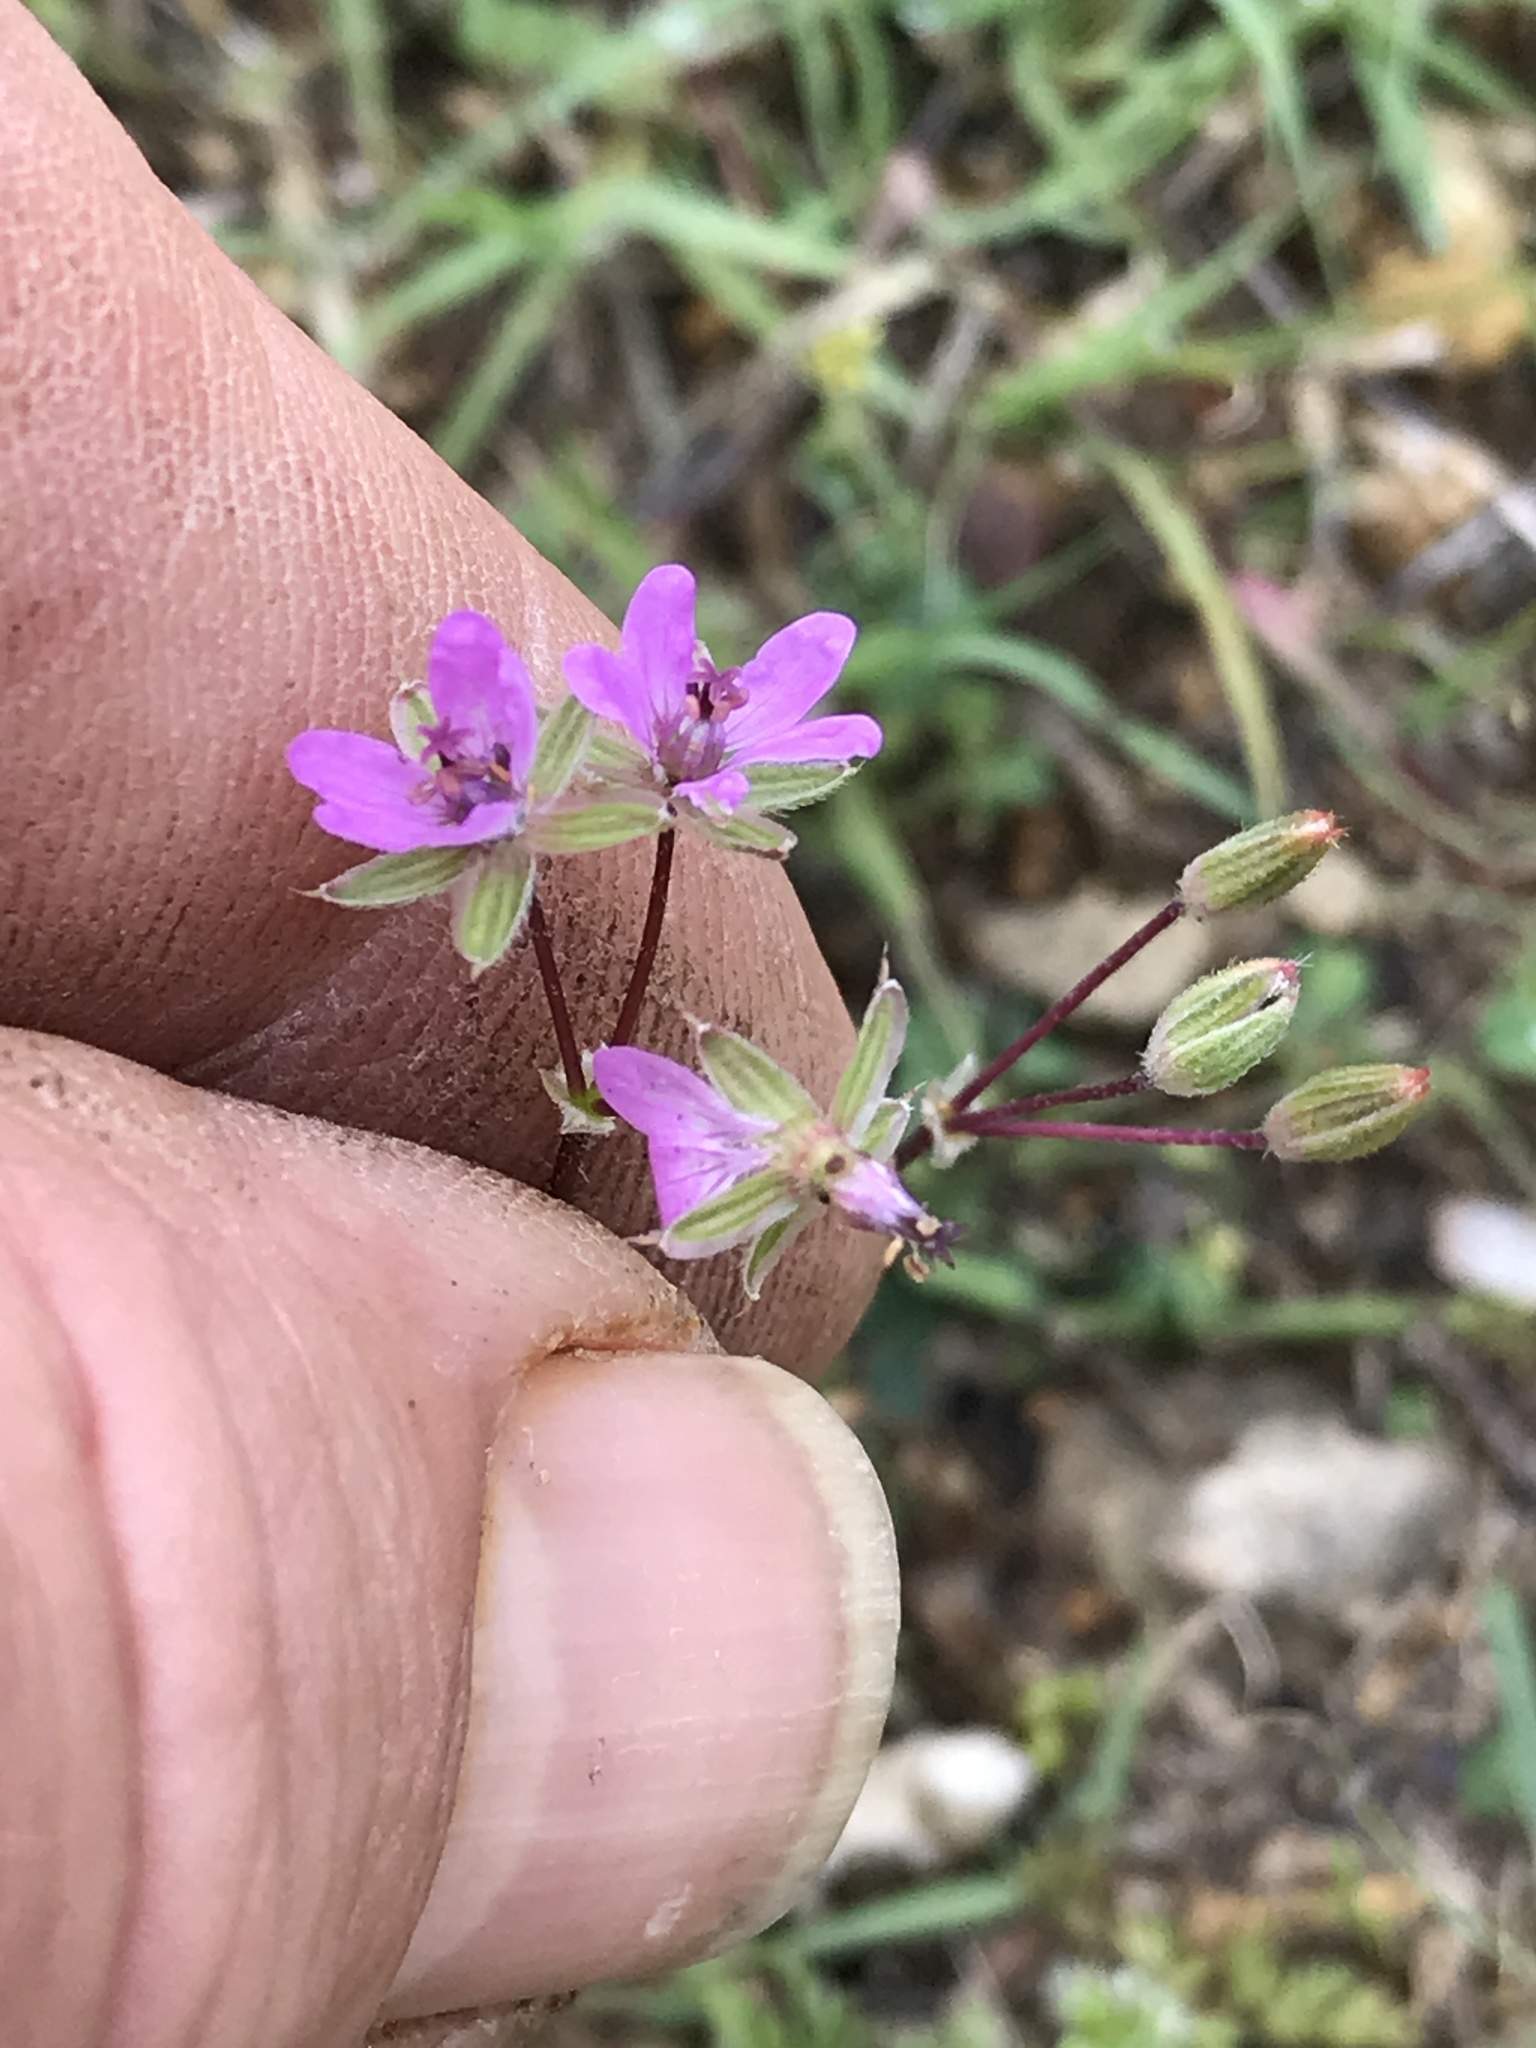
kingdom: Plantae
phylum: Tracheophyta
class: Magnoliopsida
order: Geraniales
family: Geraniaceae
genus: Erodium
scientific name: Erodium cicutarium
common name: Common stork's-bill
